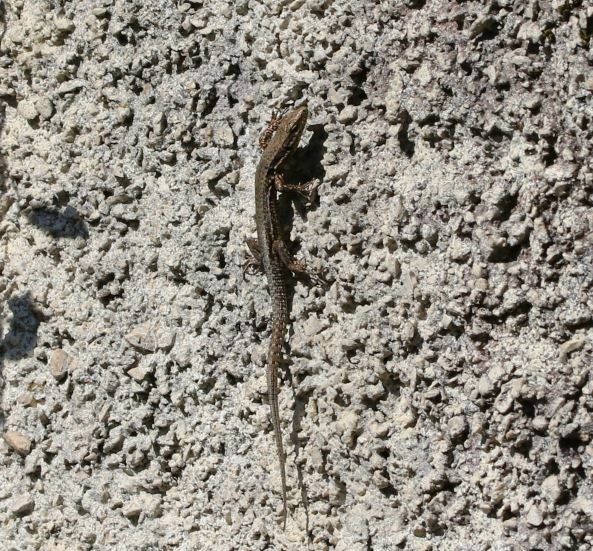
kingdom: Animalia
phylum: Chordata
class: Squamata
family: Lacertidae
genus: Podarcis
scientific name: Podarcis muralis
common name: Common wall lizard
